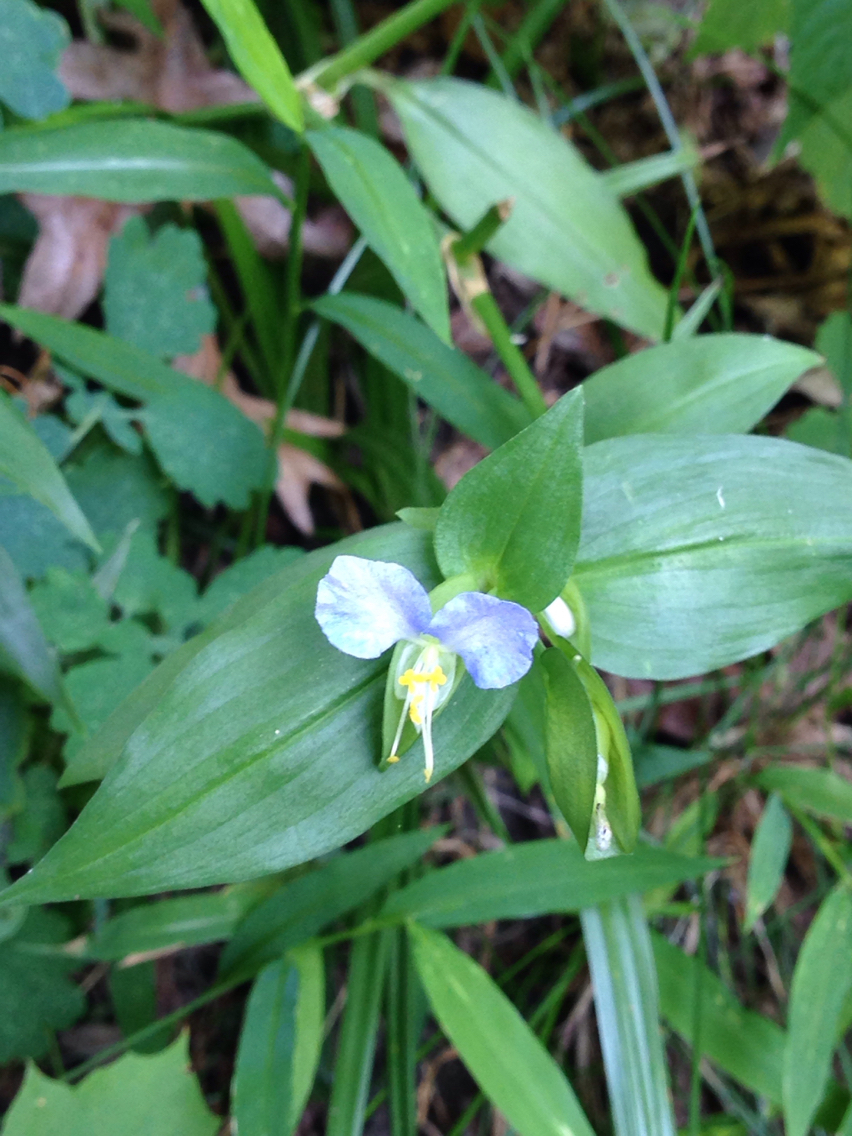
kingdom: Plantae
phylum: Tracheophyta
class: Liliopsida
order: Commelinales
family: Commelinaceae
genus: Commelina
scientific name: Commelina communis
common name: Asiatic dayflower
